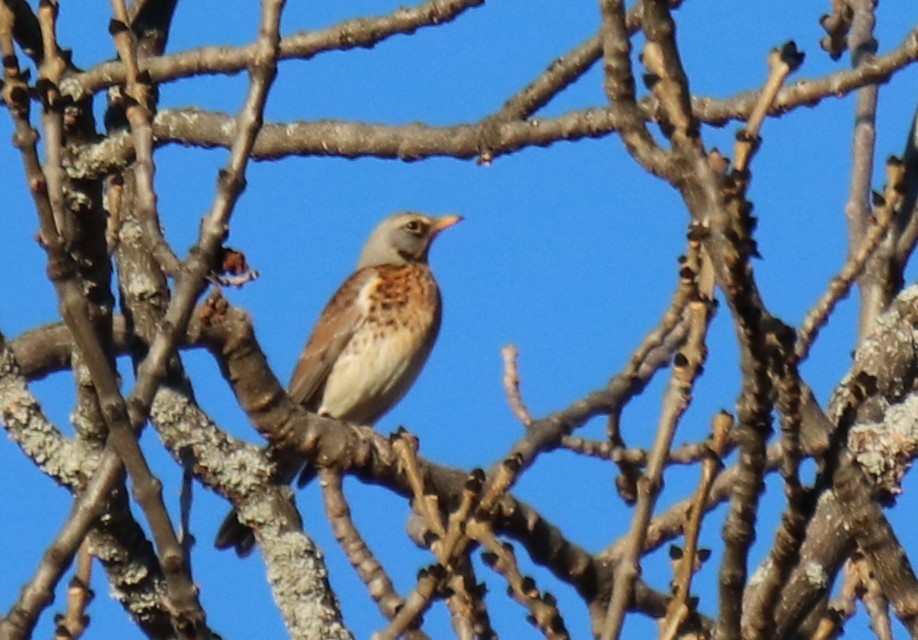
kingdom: Animalia
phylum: Chordata
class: Aves
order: Passeriformes
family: Turdidae
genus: Turdus
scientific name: Turdus pilaris
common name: Fieldfare
